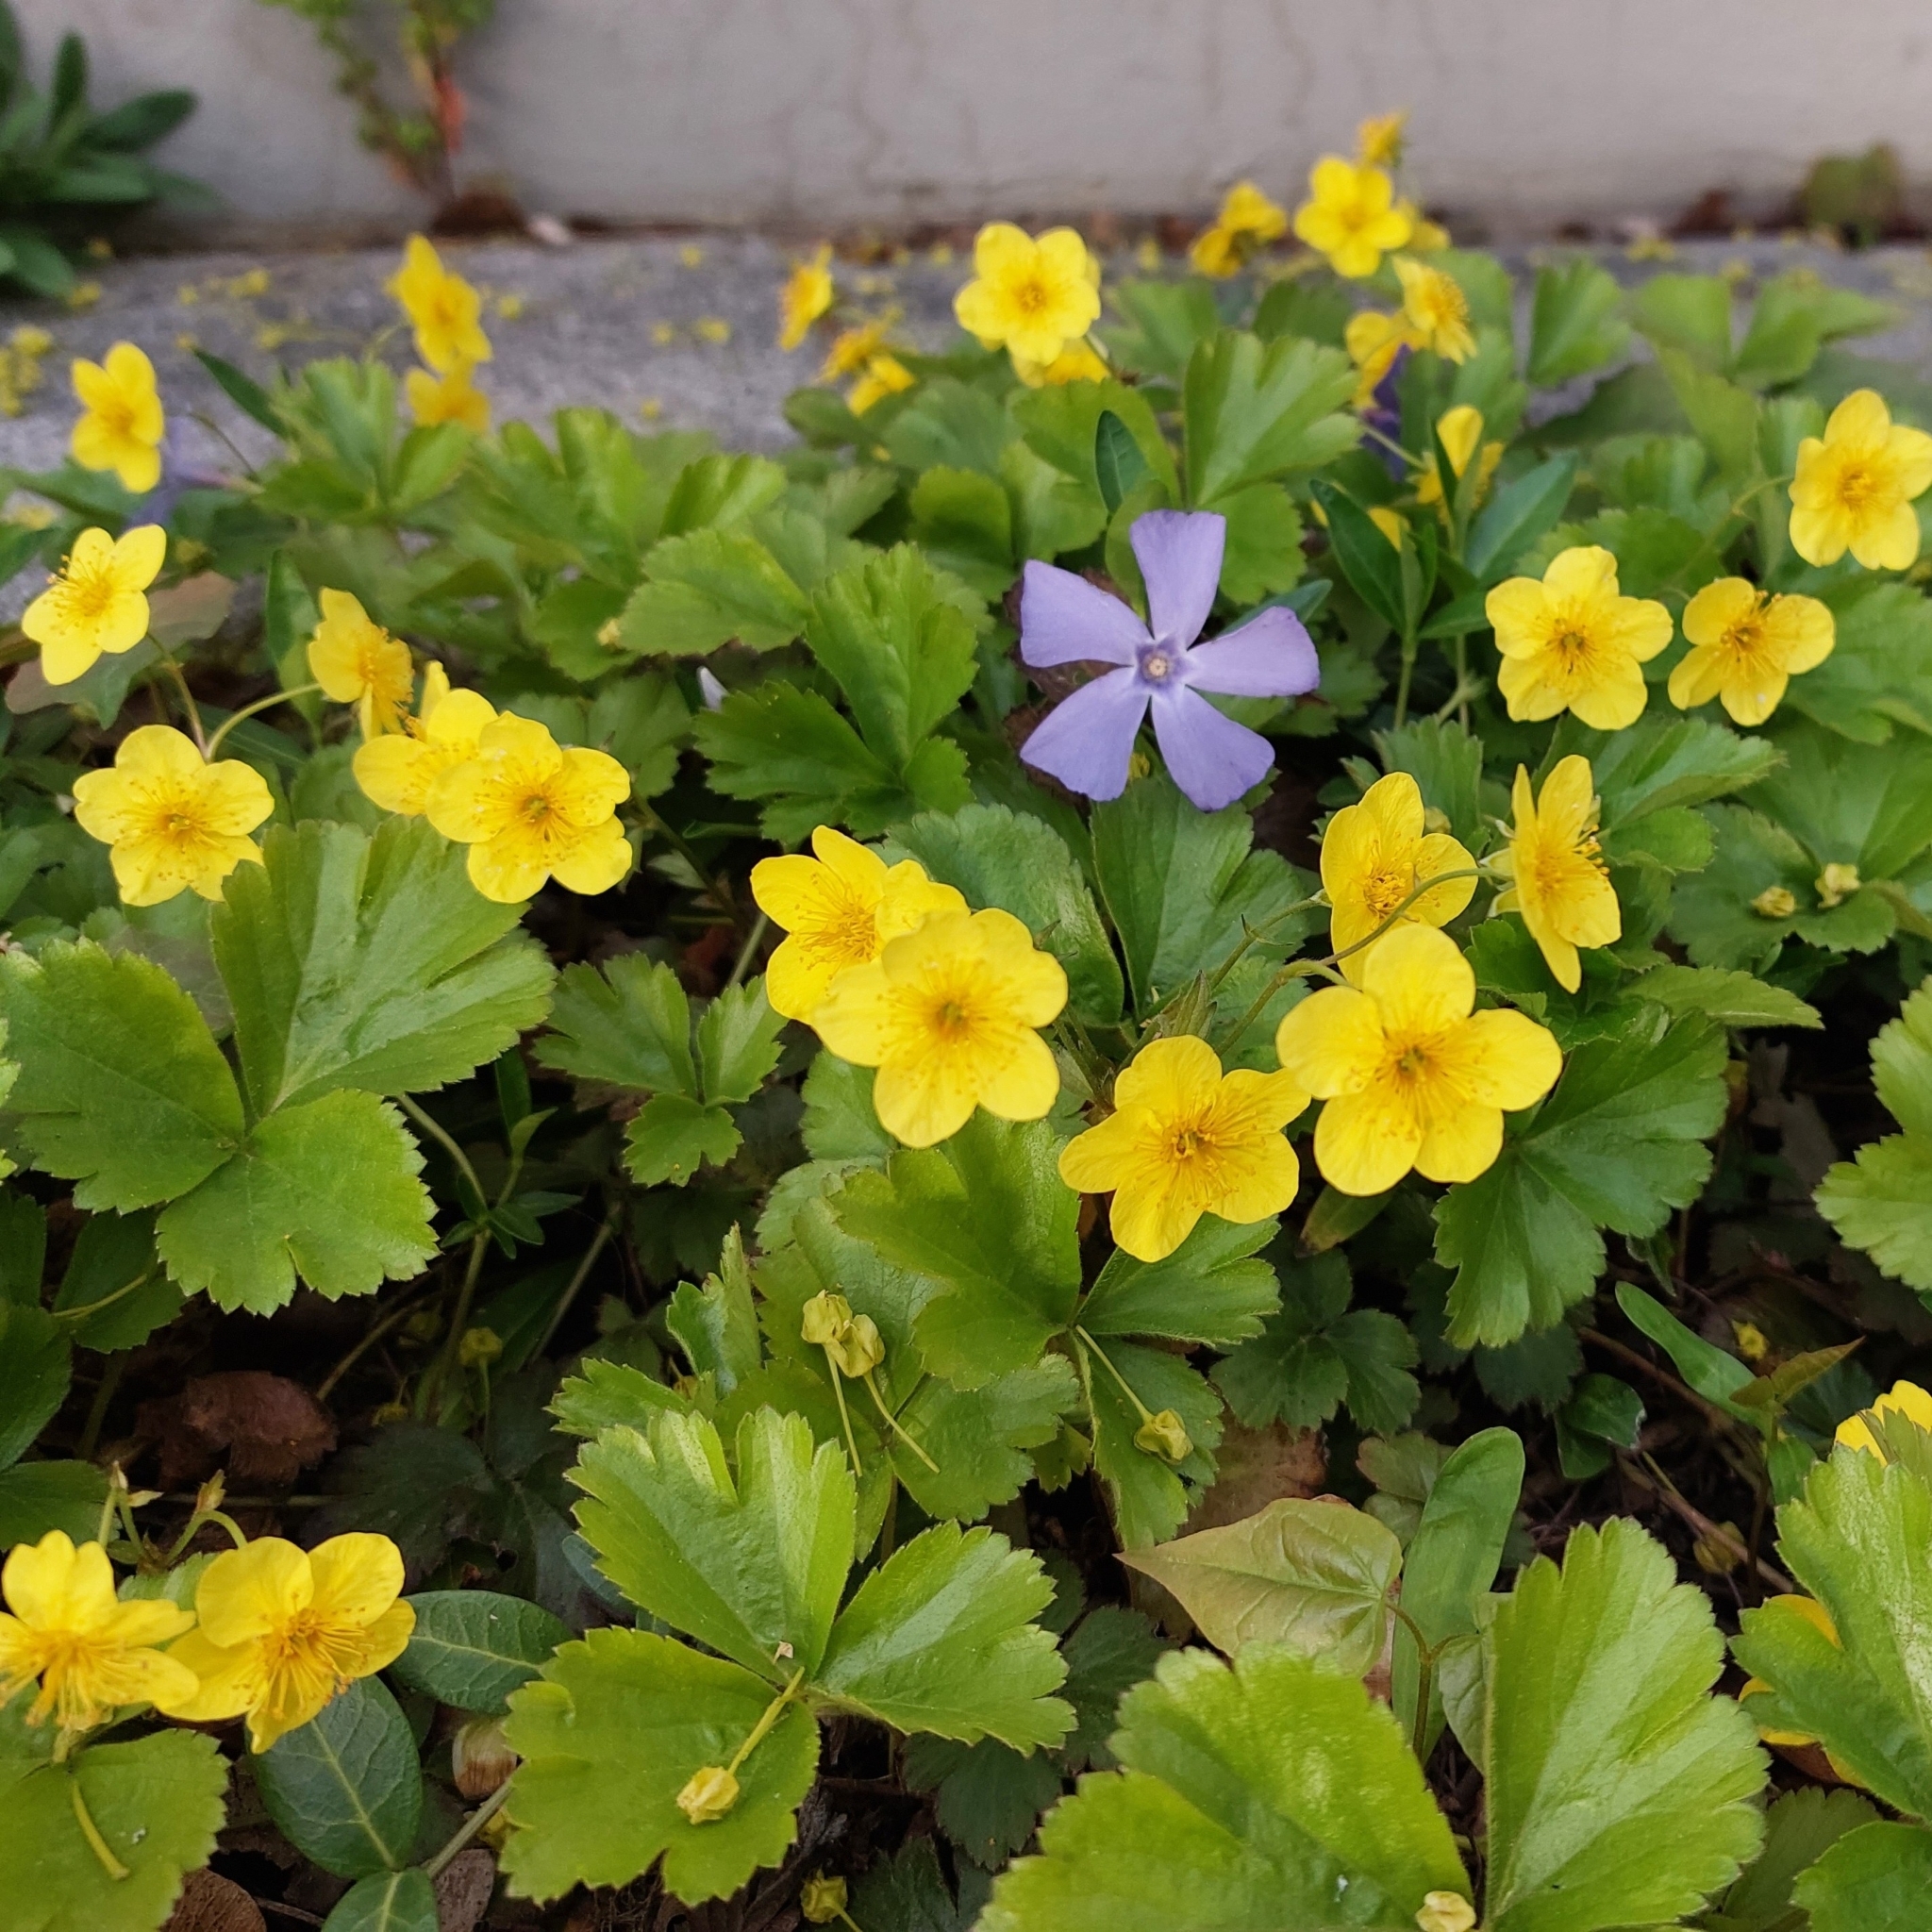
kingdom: Plantae
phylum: Tracheophyta
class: Magnoliopsida
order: Rosales
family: Rosaceae
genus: Geum
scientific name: Geum ternatum
